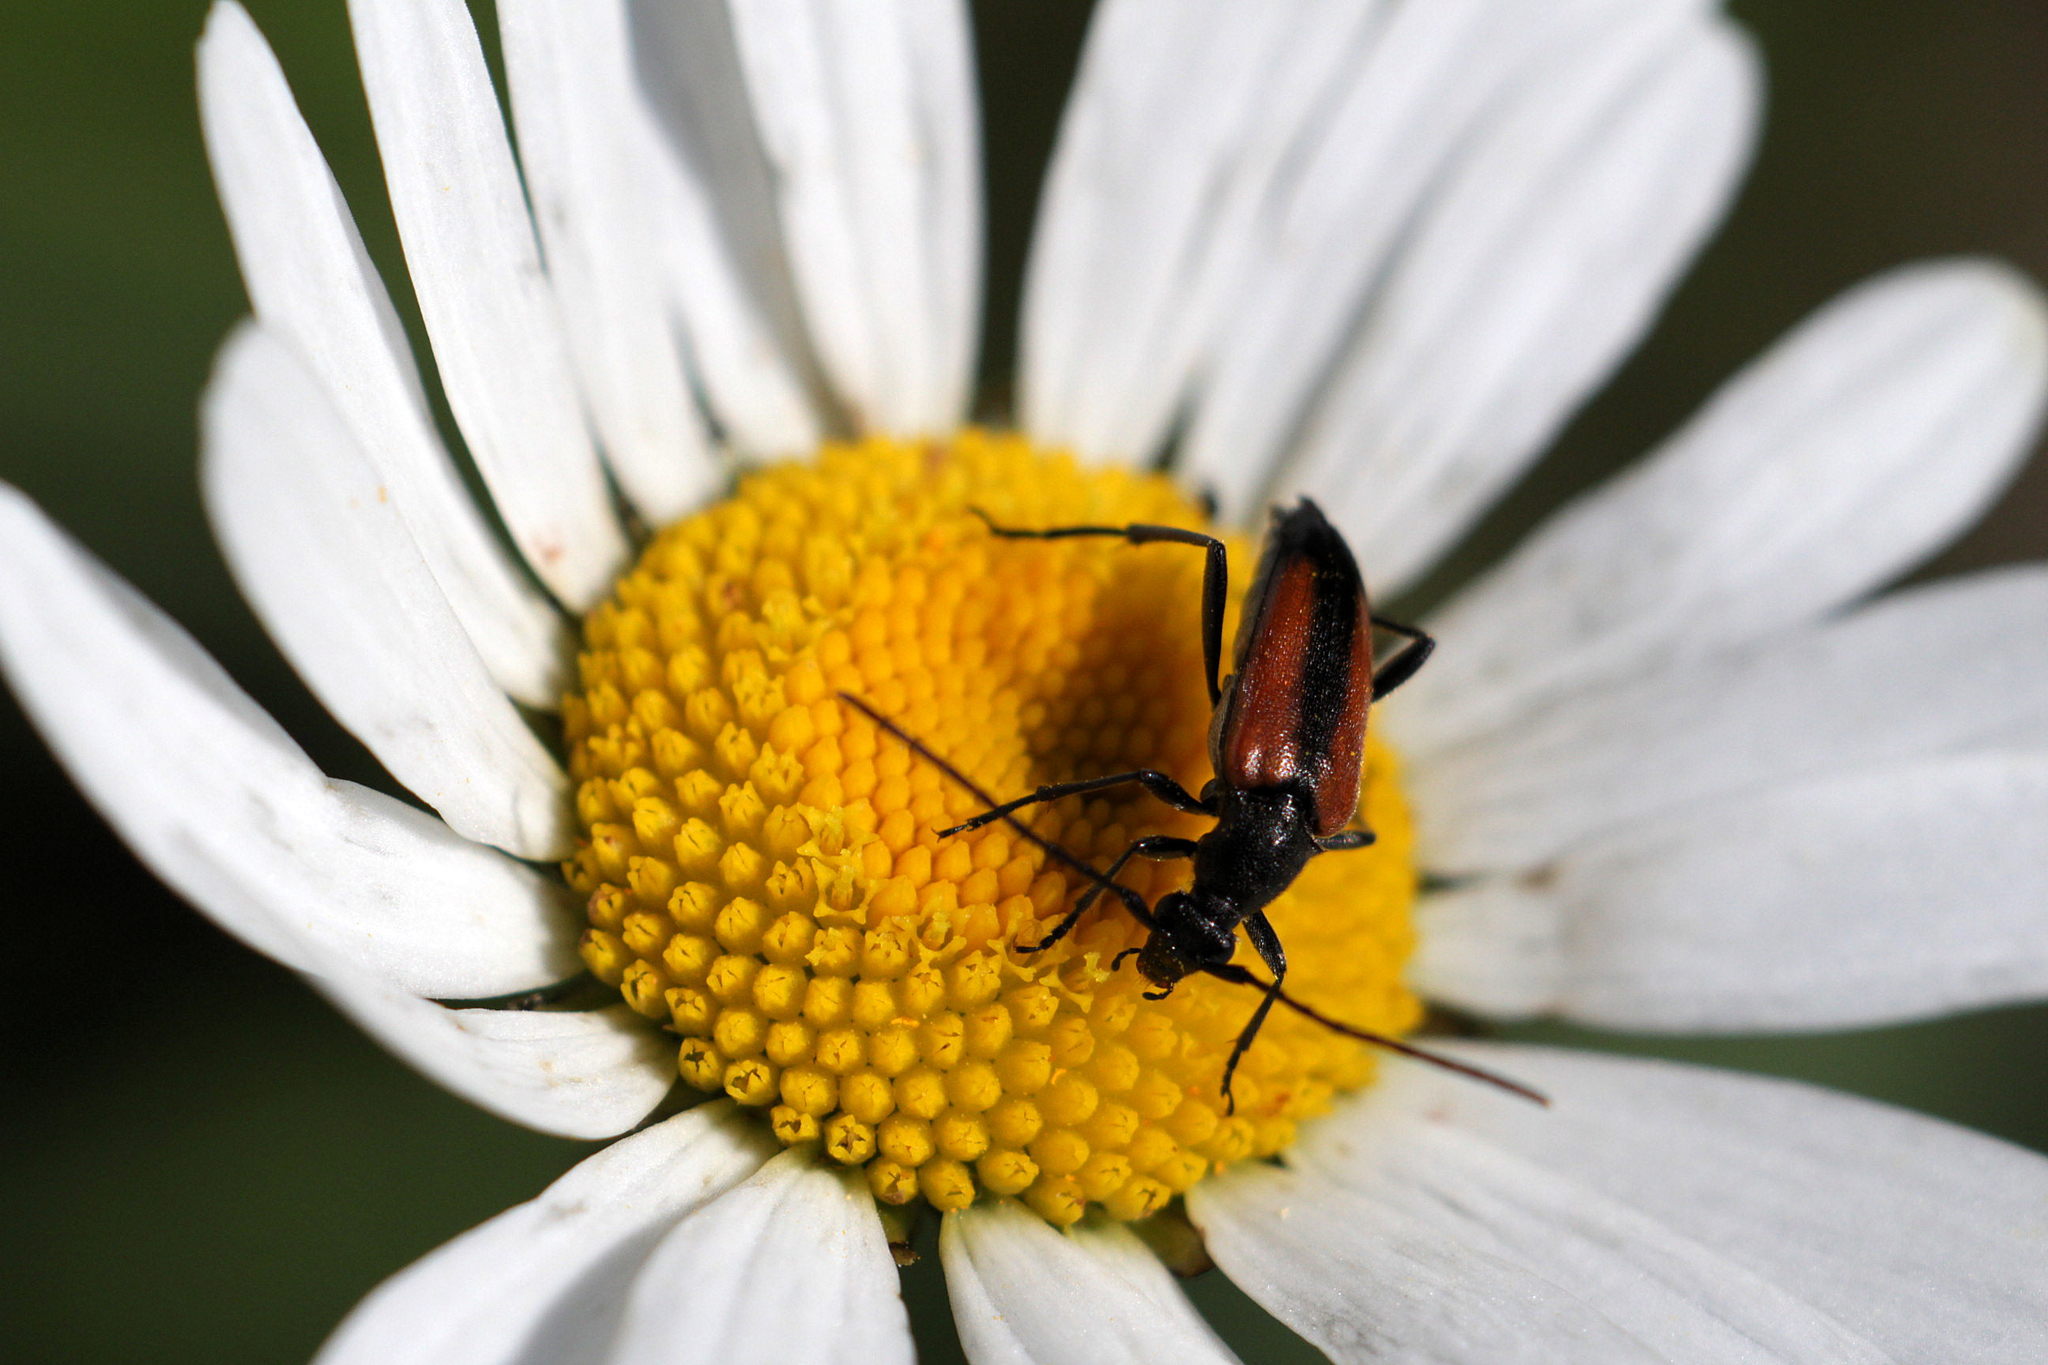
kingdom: Animalia
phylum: Arthropoda
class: Insecta
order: Coleoptera
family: Cerambycidae
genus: Stenurella
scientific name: Stenurella melanura
